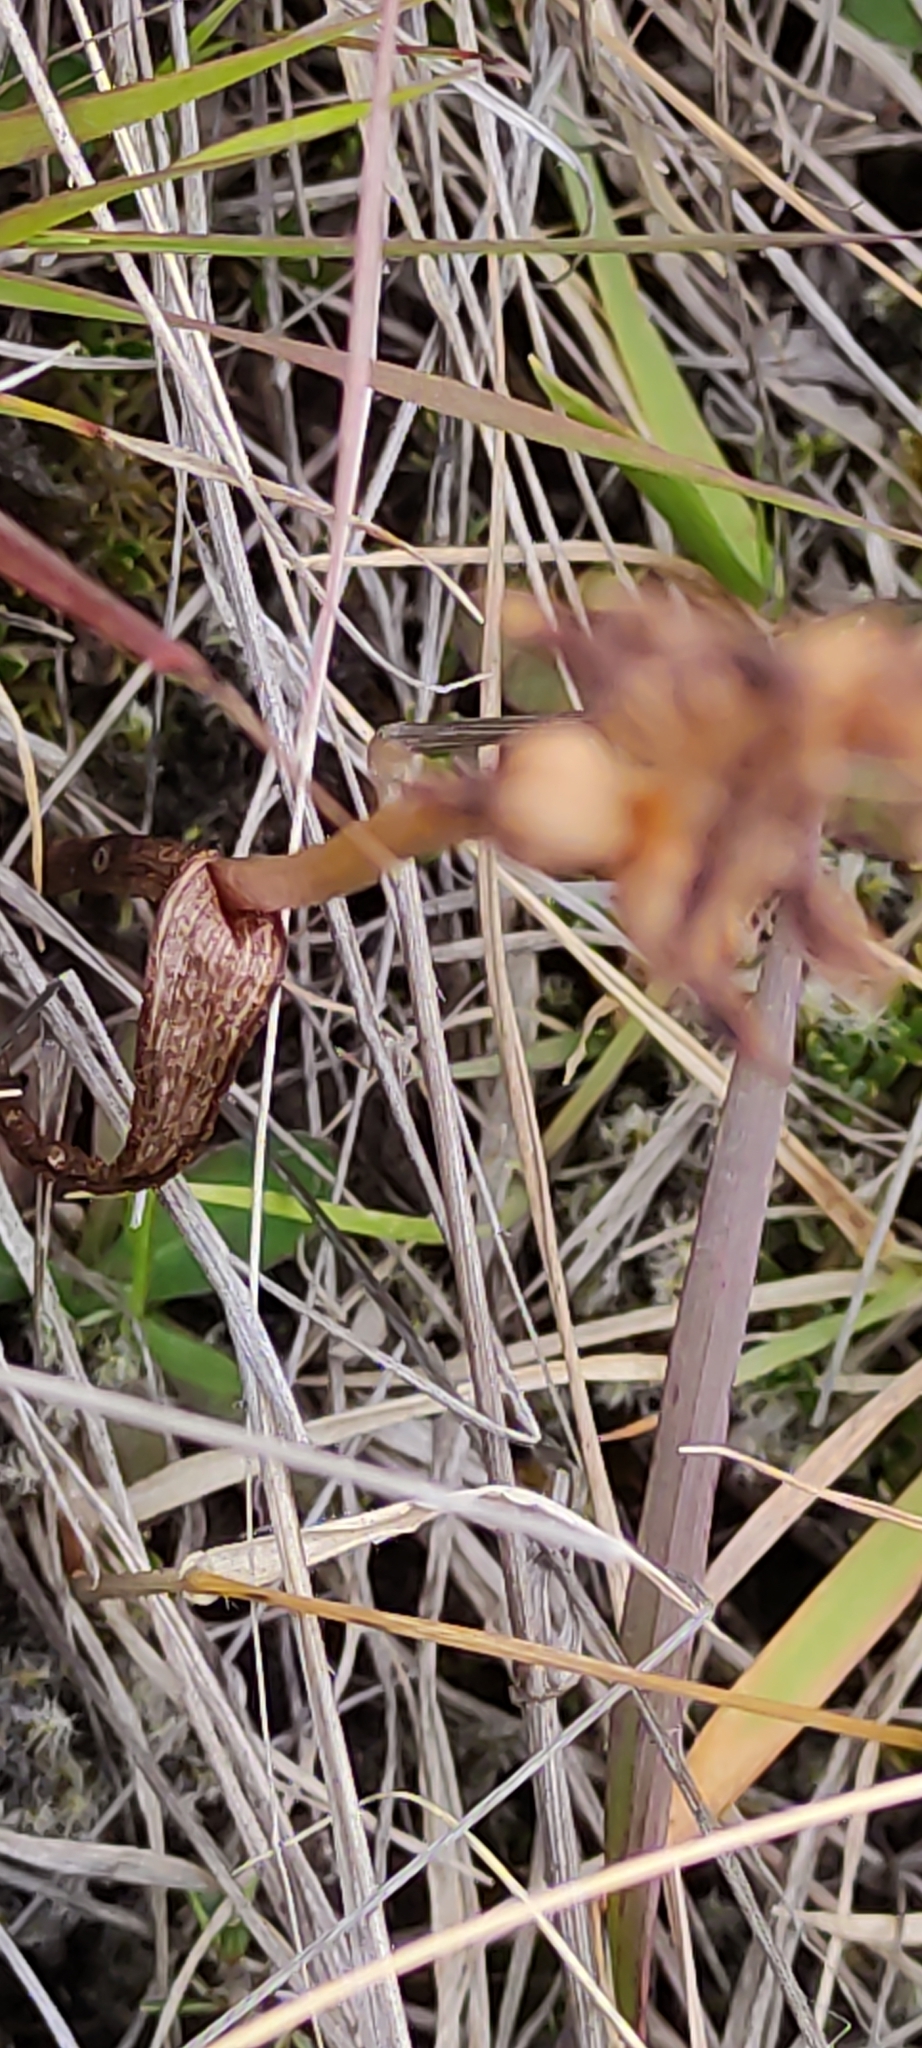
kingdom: Plantae
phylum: Tracheophyta
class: Liliopsida
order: Asparagales
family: Orchidaceae
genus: Prasophyllum
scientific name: Prasophyllum colensoi
